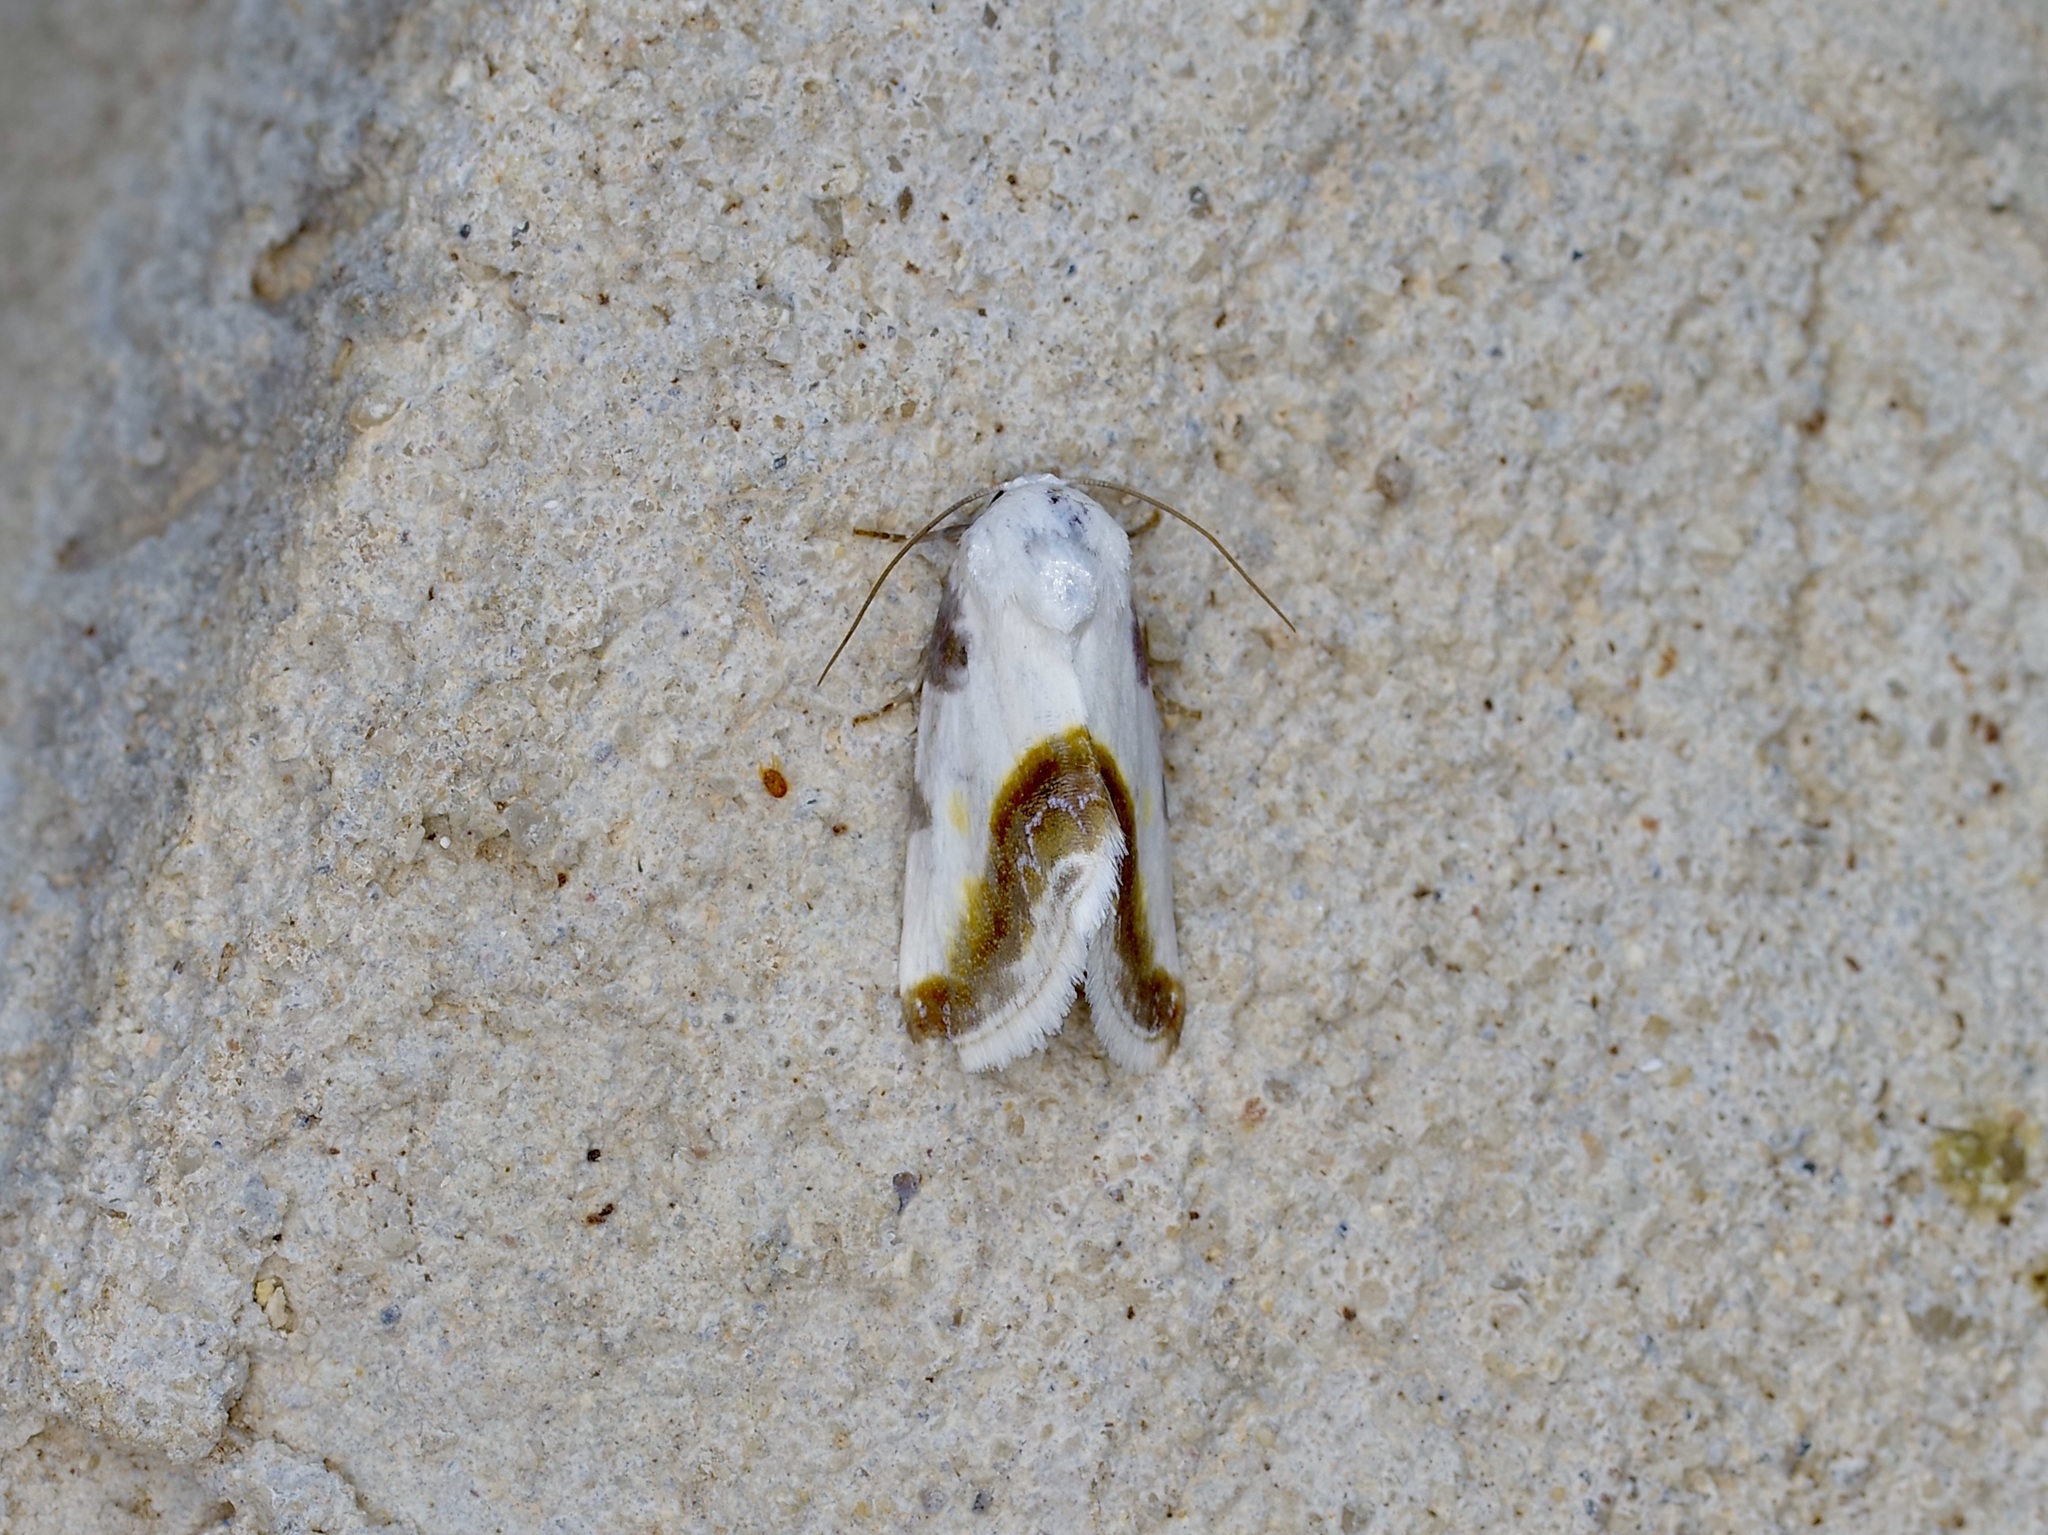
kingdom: Animalia
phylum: Arthropoda
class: Insecta
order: Lepidoptera
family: Noctuidae
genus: Acontia
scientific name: Acontia cretata
